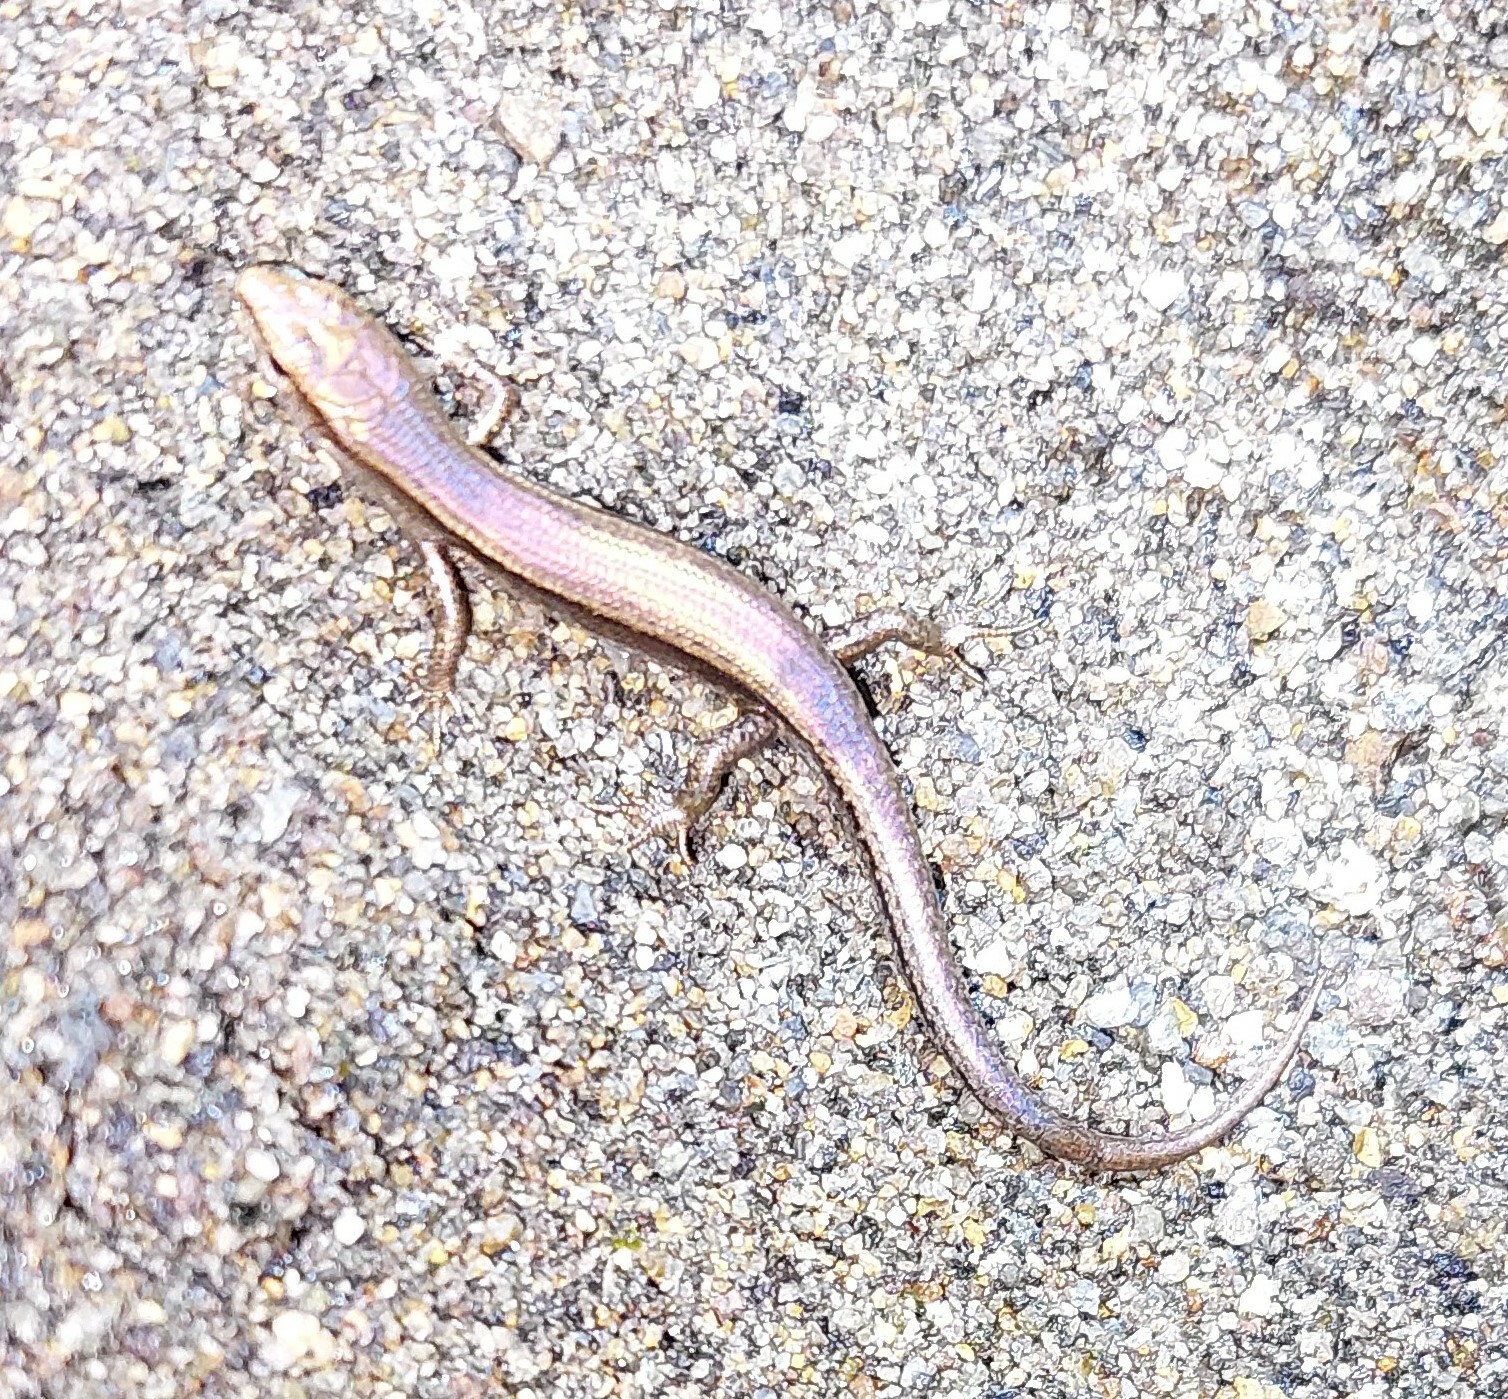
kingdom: Animalia
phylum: Chordata
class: Squamata
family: Scincidae
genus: Lampropholis
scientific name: Lampropholis delicata
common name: Plague skink
